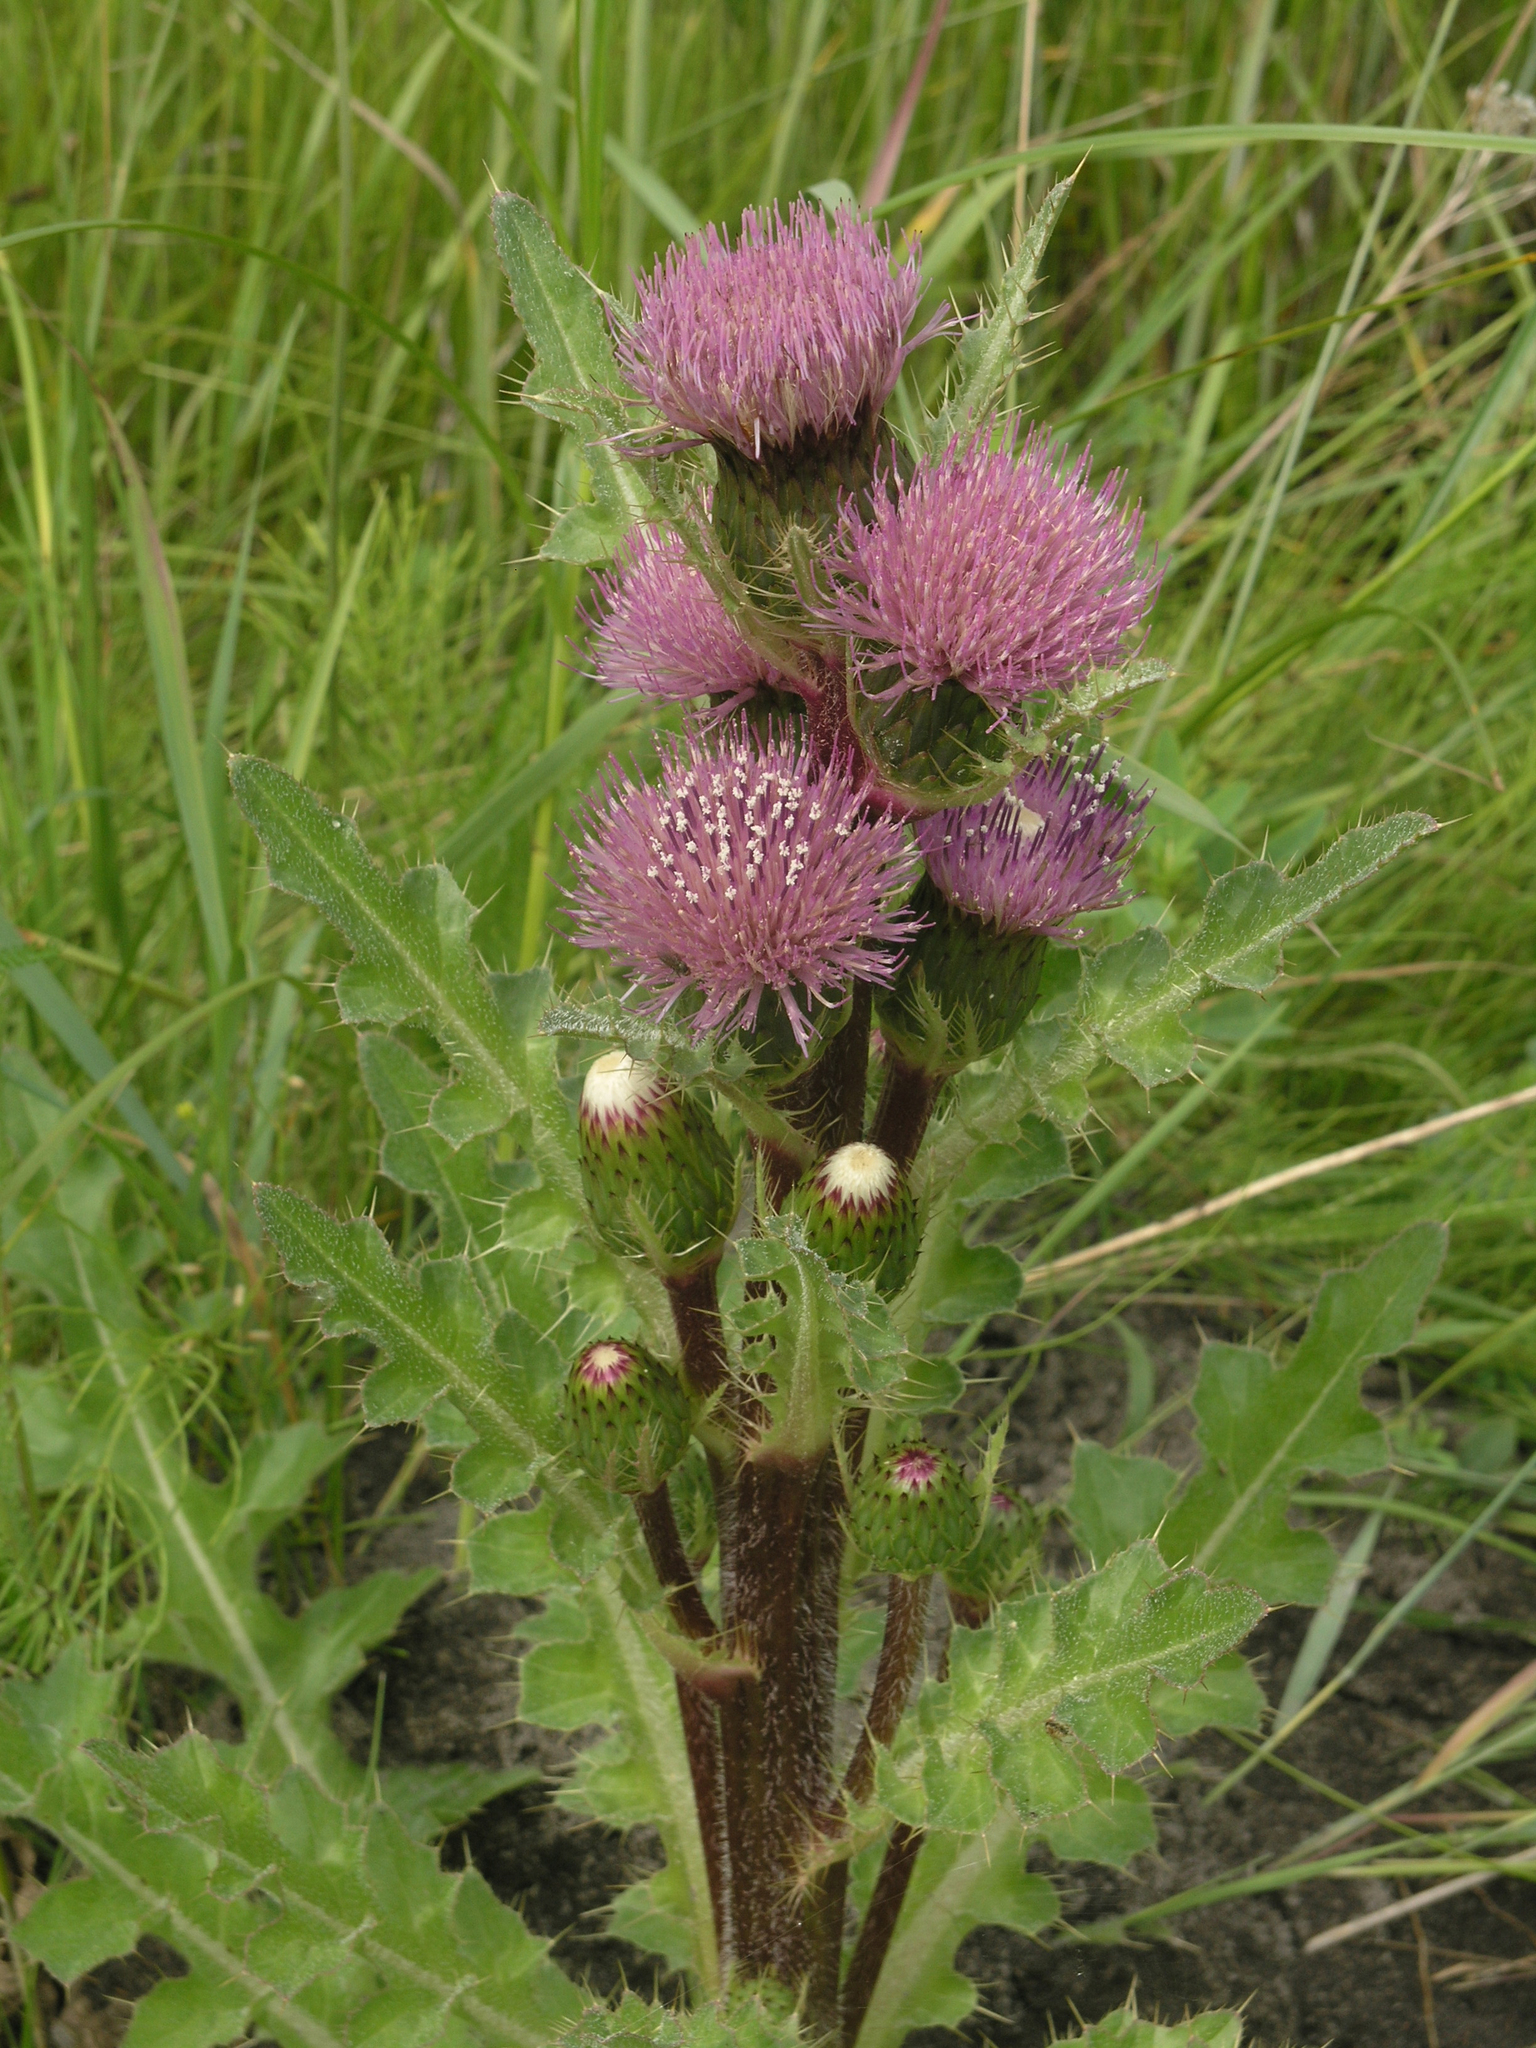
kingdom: Plantae
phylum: Tracheophyta
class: Magnoliopsida
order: Asterales
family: Asteraceae
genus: Cirsium
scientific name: Cirsium esculentum
